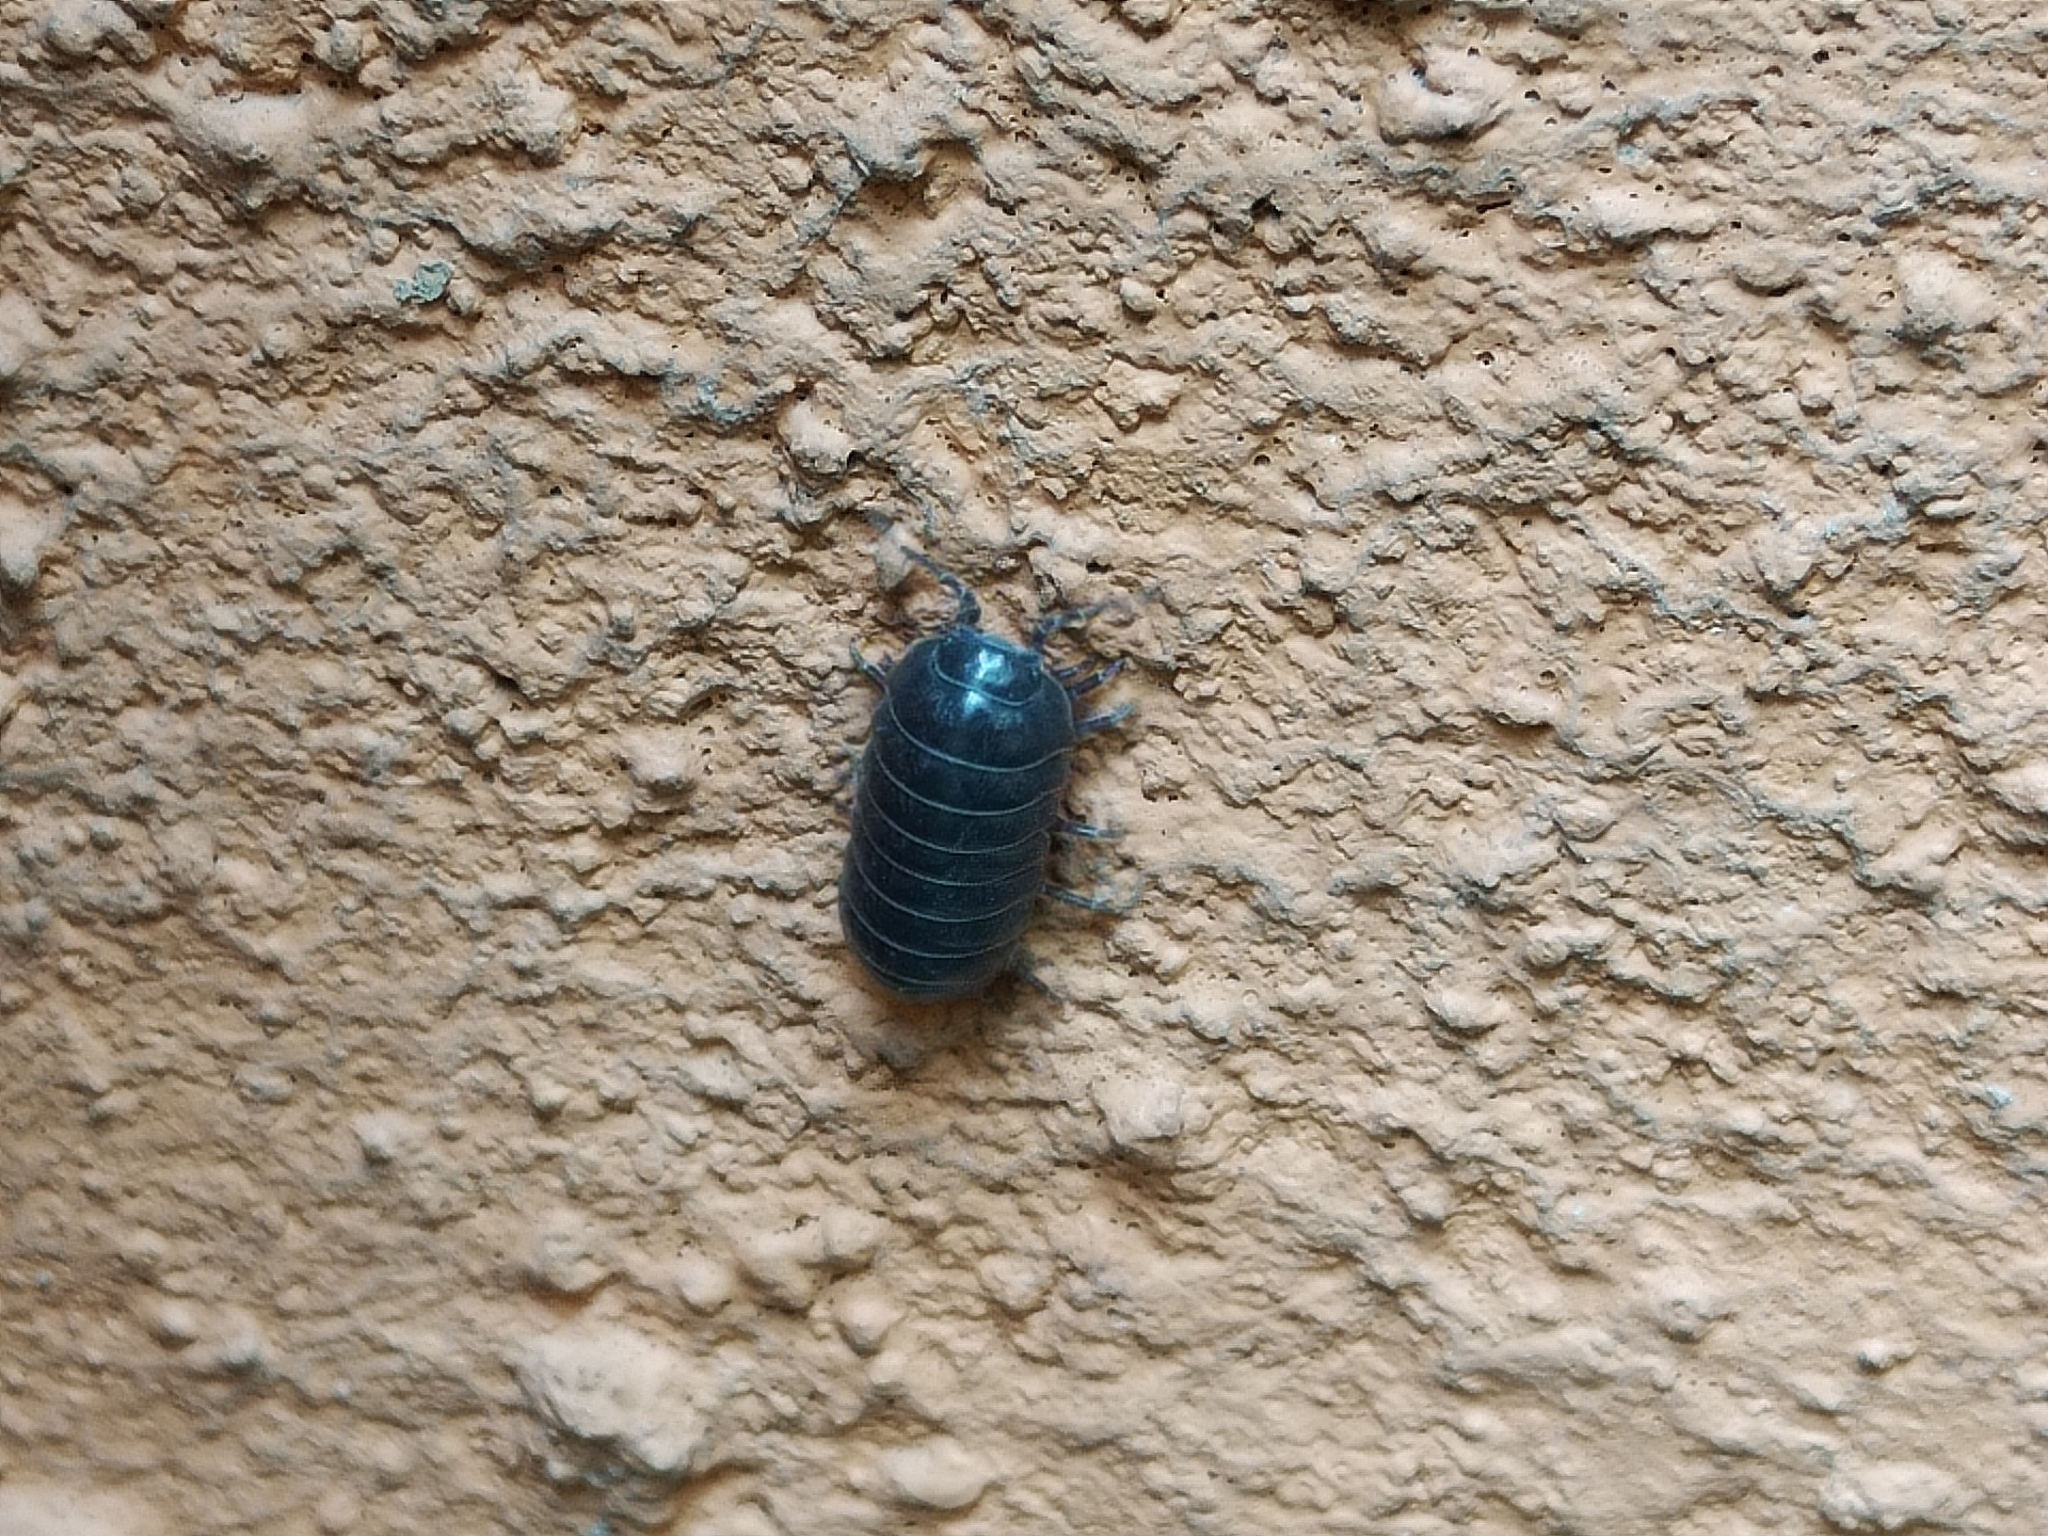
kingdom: Animalia
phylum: Arthropoda
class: Malacostraca
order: Isopoda
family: Armadillidiidae
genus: Armadillidium
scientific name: Armadillidium vulgare
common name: Common pill woodlouse
